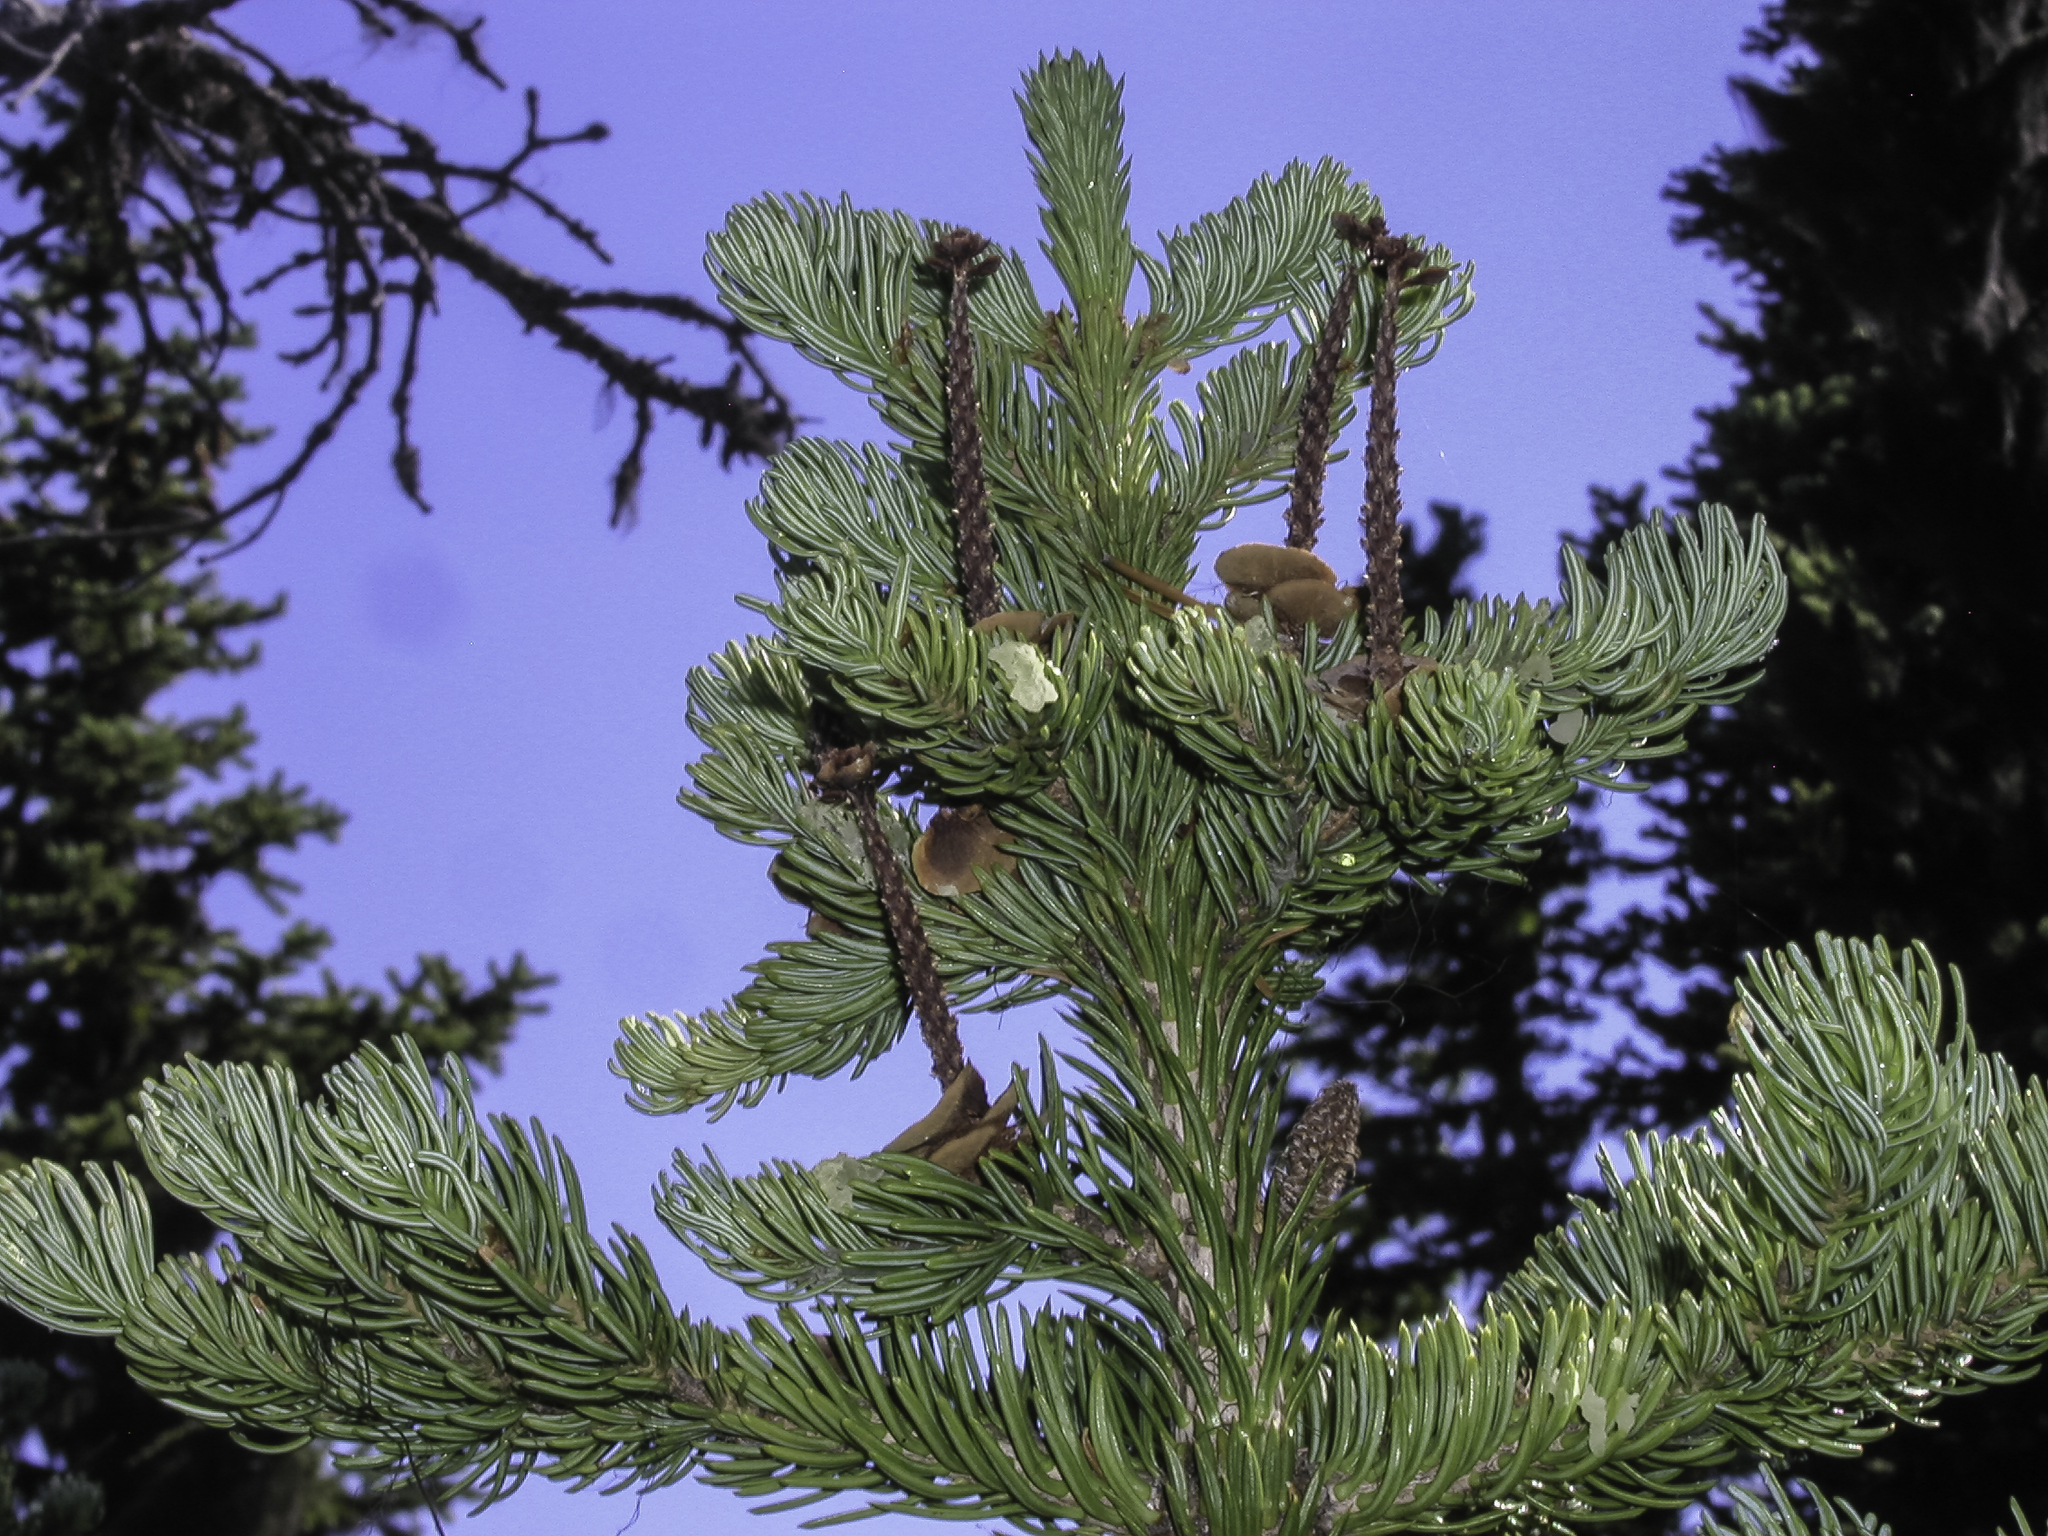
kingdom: Plantae
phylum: Tracheophyta
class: Pinopsida
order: Pinales
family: Pinaceae
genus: Abies
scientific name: Abies lasiocarpa
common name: Subalpine fir
